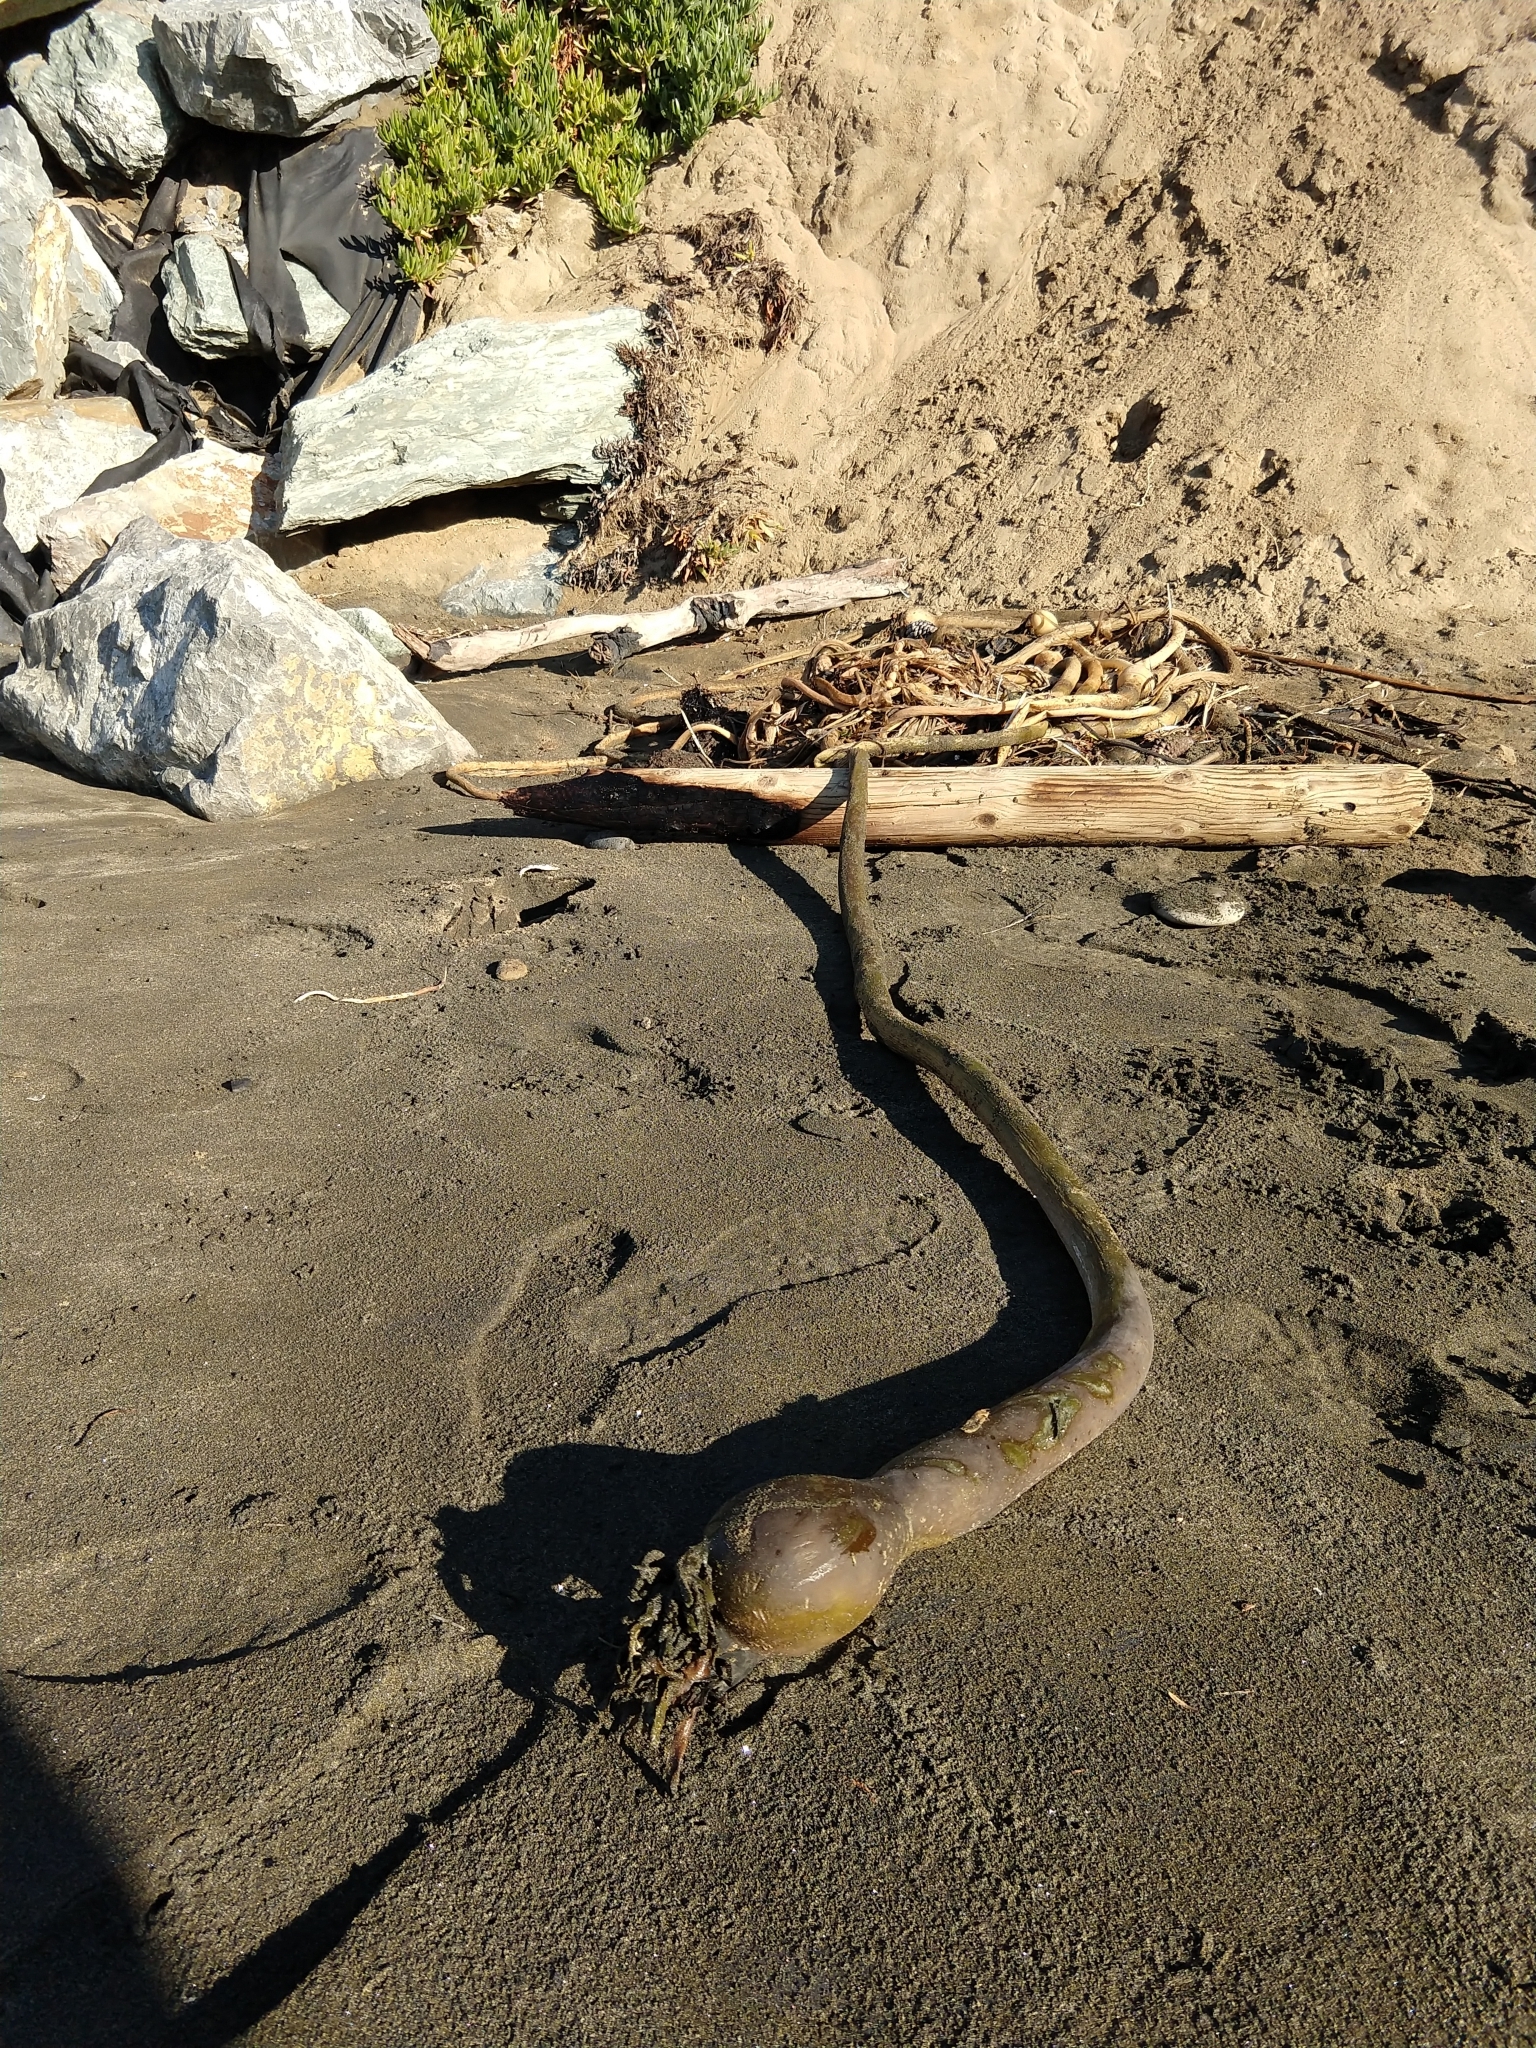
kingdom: Chromista
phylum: Ochrophyta
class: Phaeophyceae
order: Laminariales
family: Laminariaceae
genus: Nereocystis
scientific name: Nereocystis luetkeana
